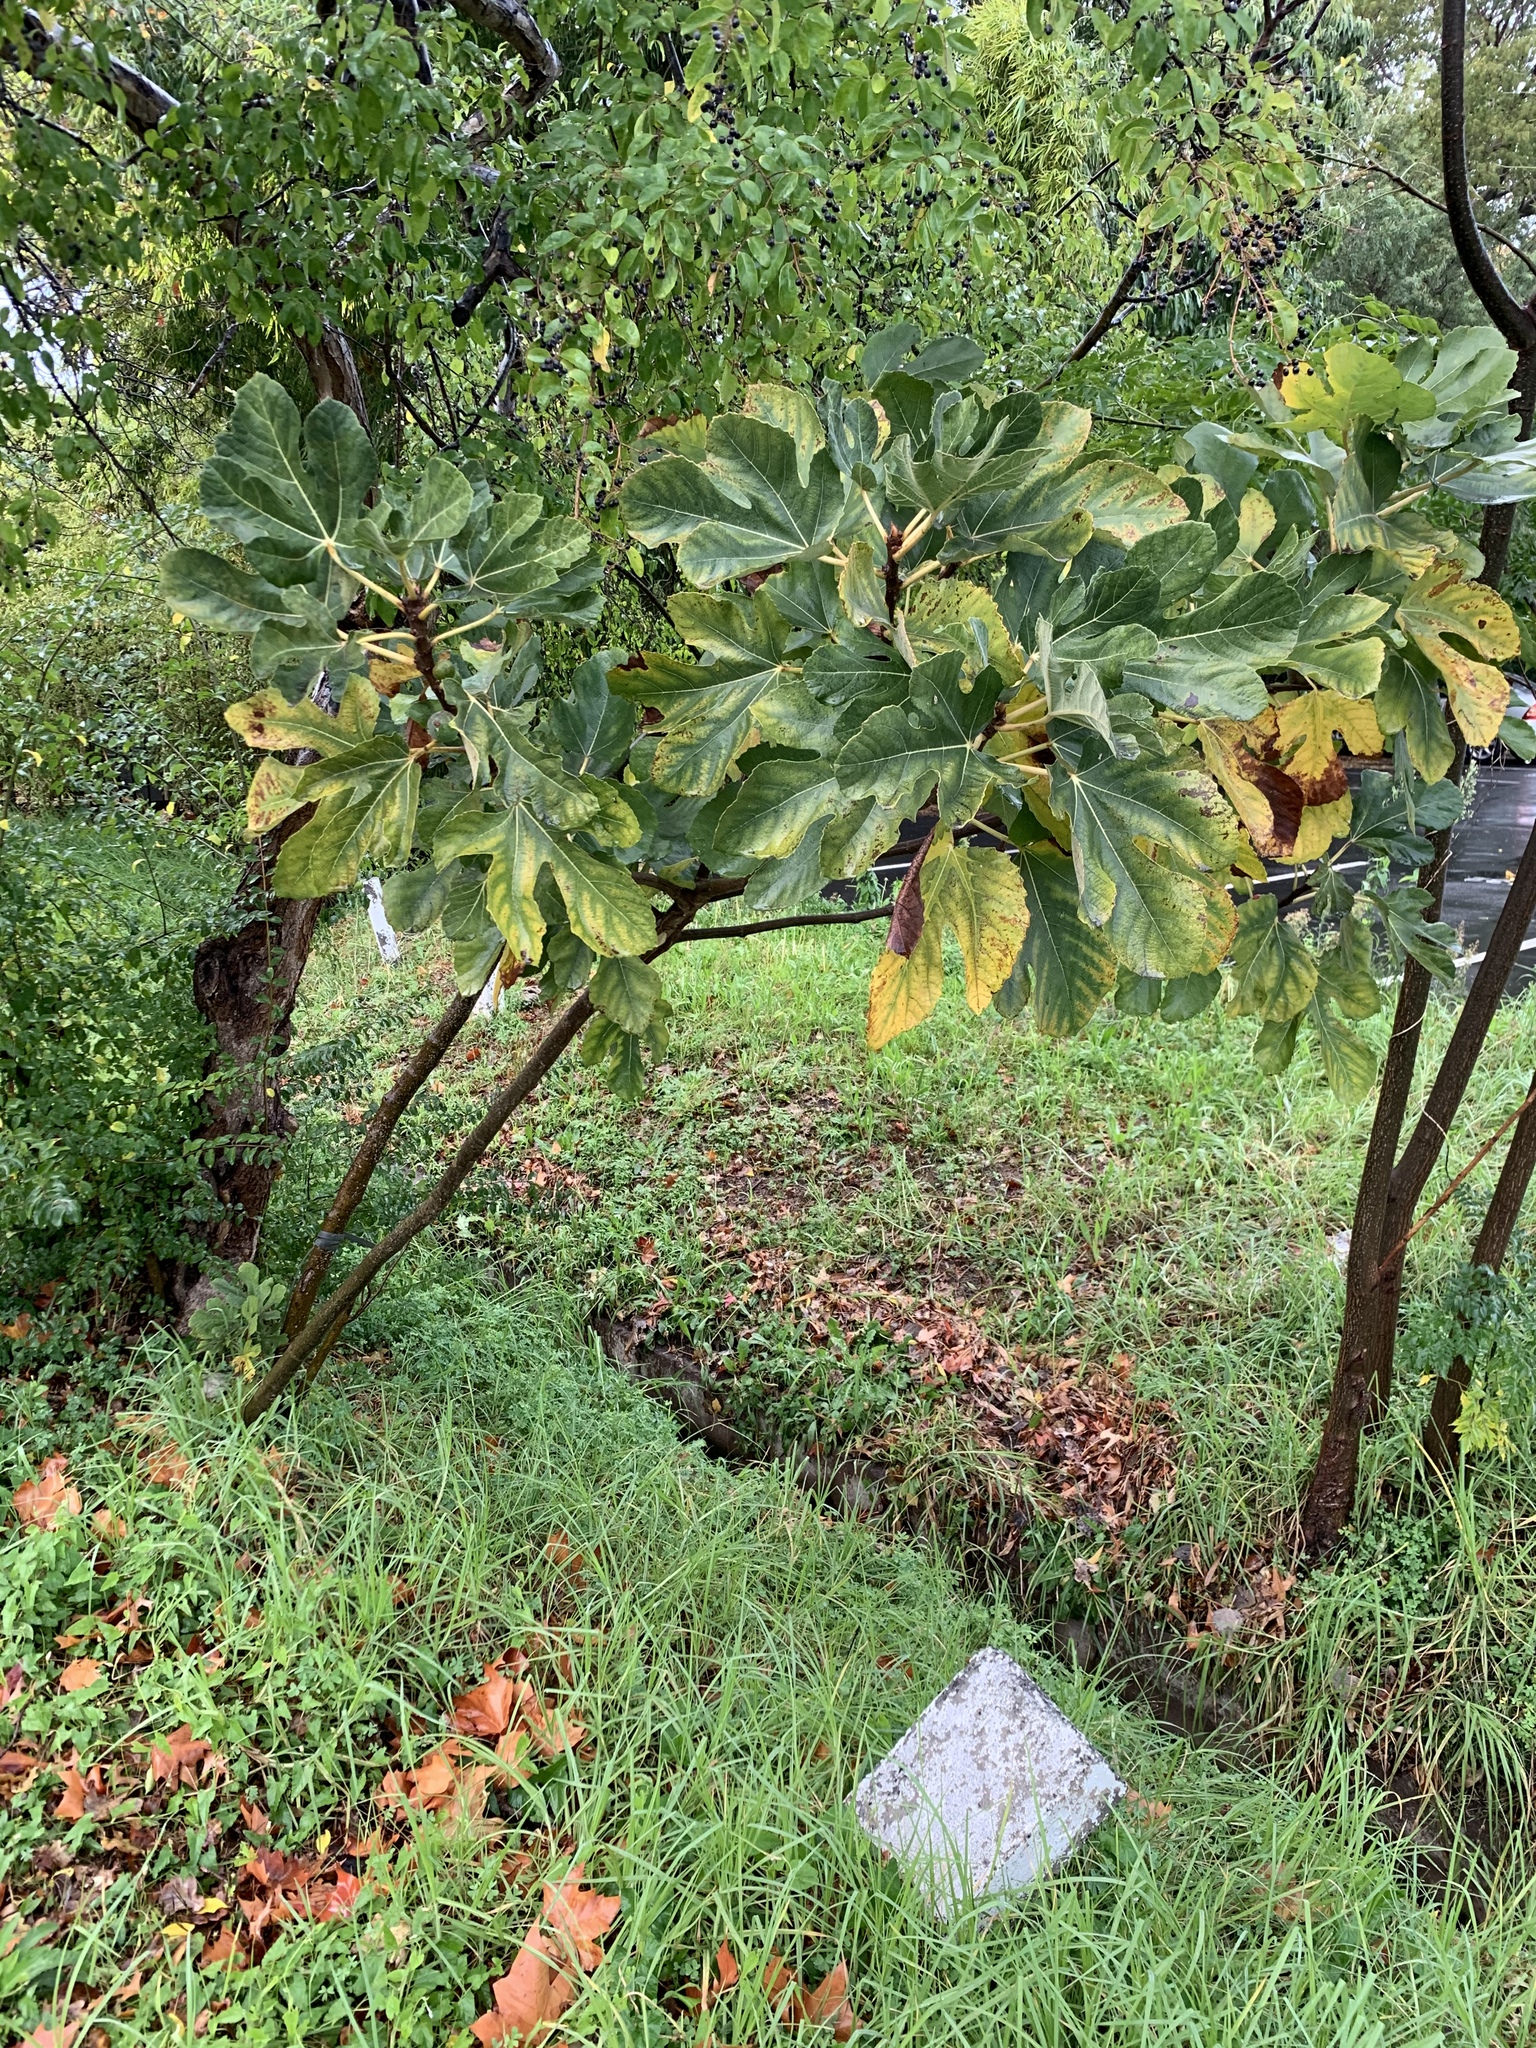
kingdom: Plantae
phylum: Tracheophyta
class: Magnoliopsida
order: Rosales
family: Moraceae
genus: Ficus
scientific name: Ficus carica
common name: Fig
